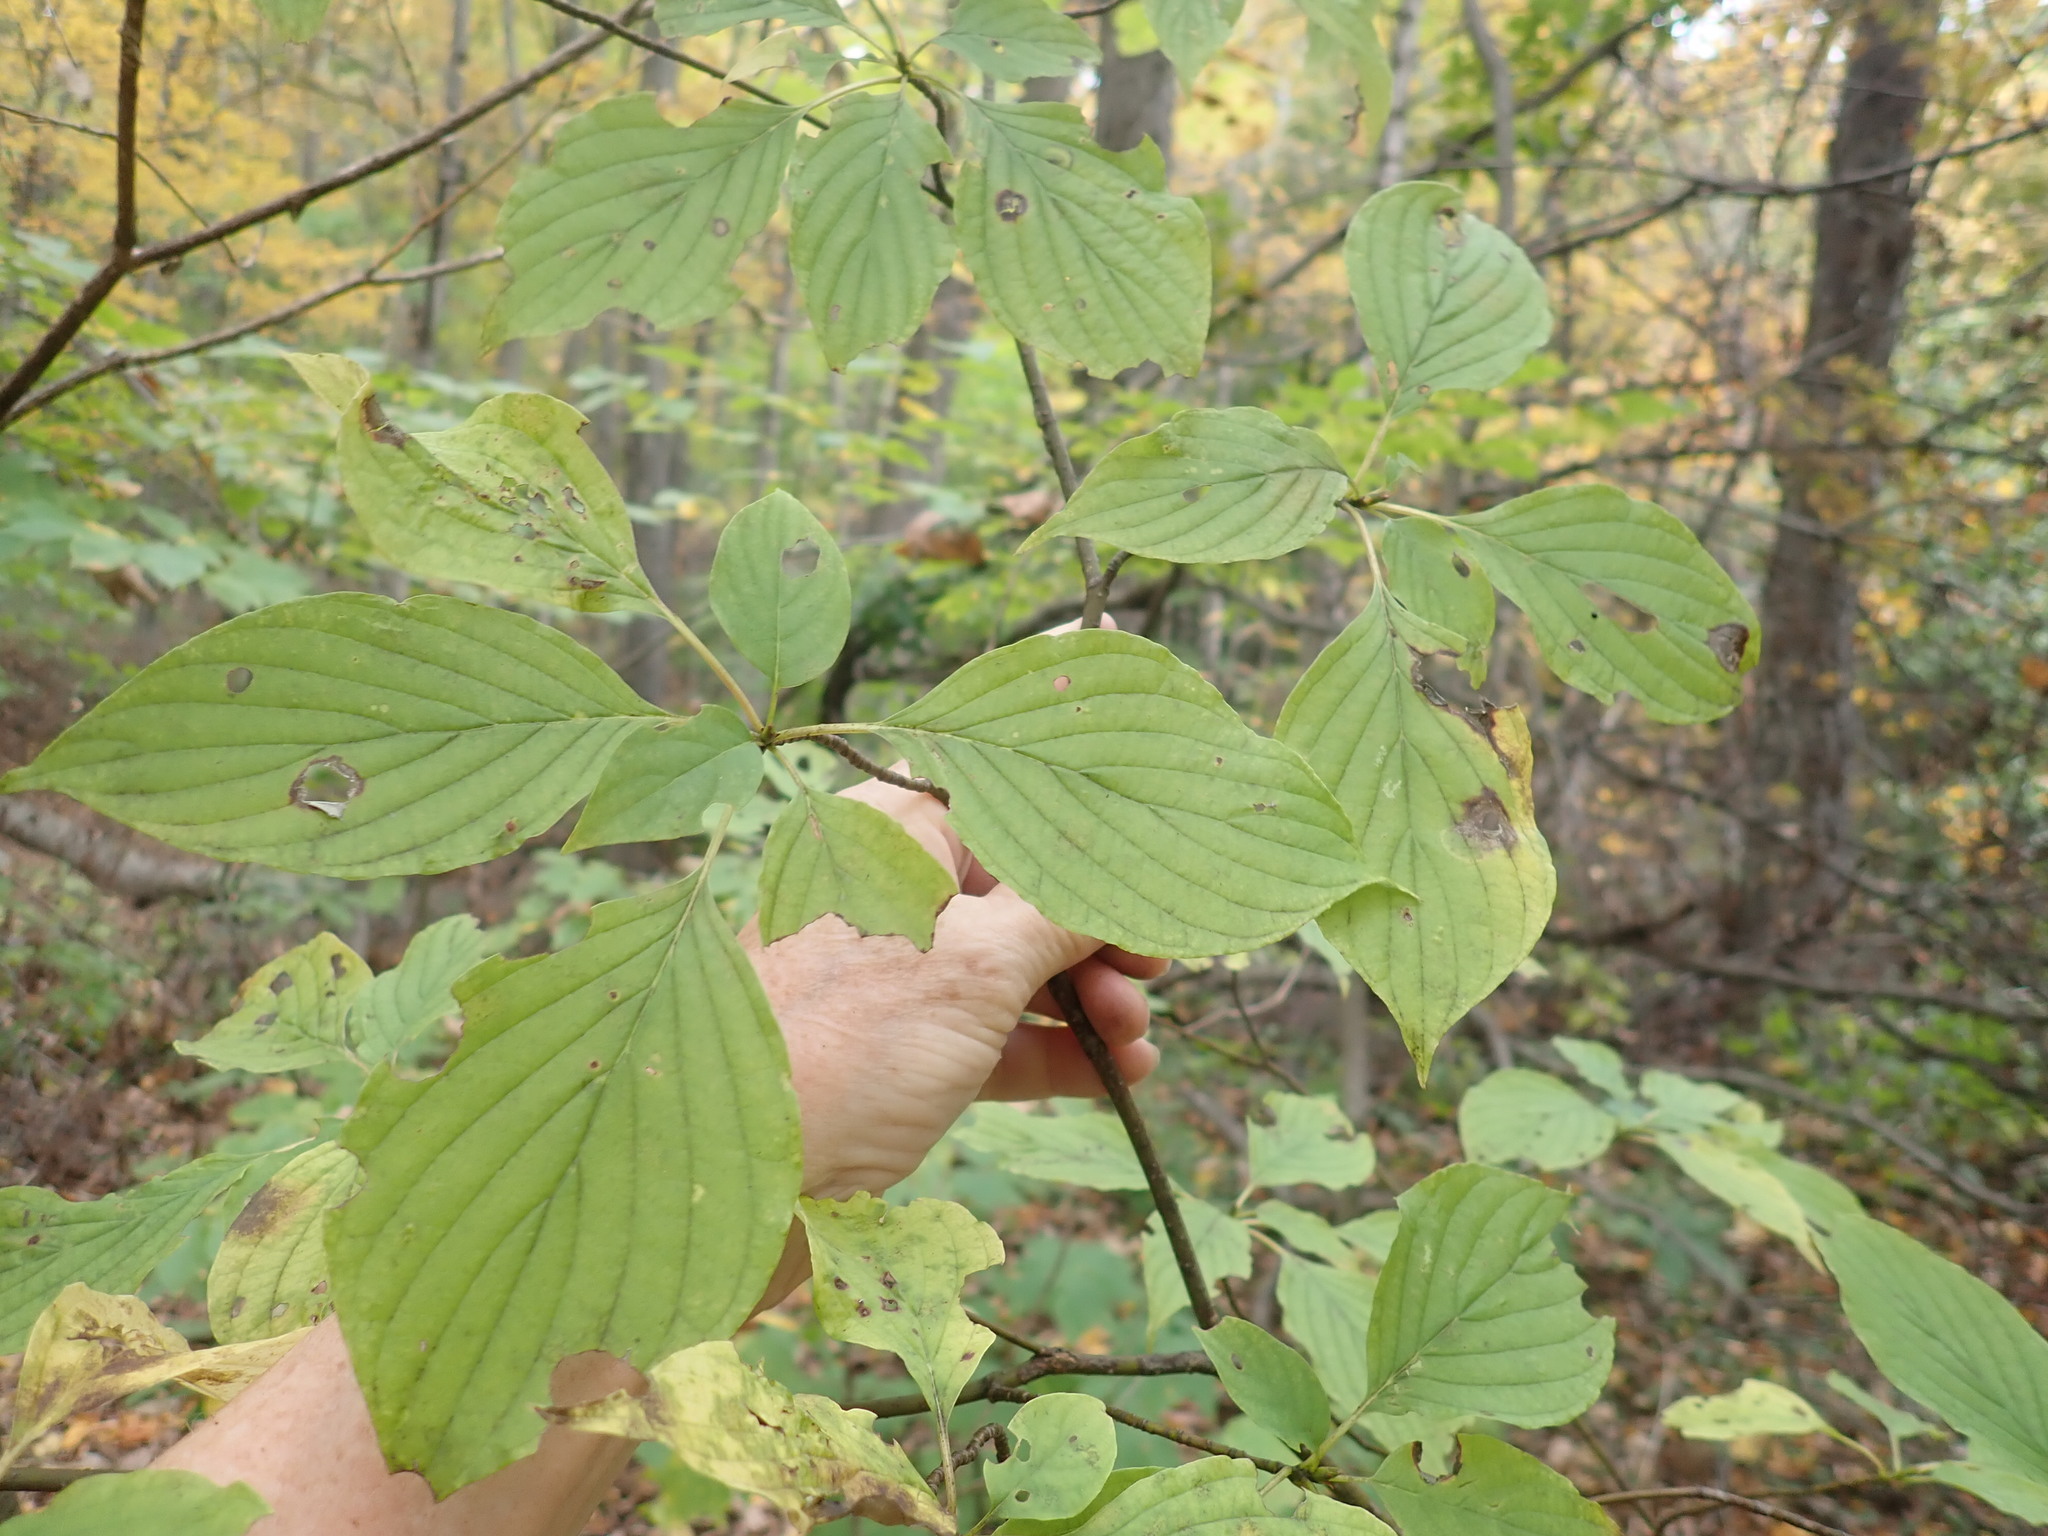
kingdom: Plantae
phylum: Tracheophyta
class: Magnoliopsida
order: Cornales
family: Cornaceae
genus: Cornus
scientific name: Cornus alternifolia
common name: Pagoda dogwood
